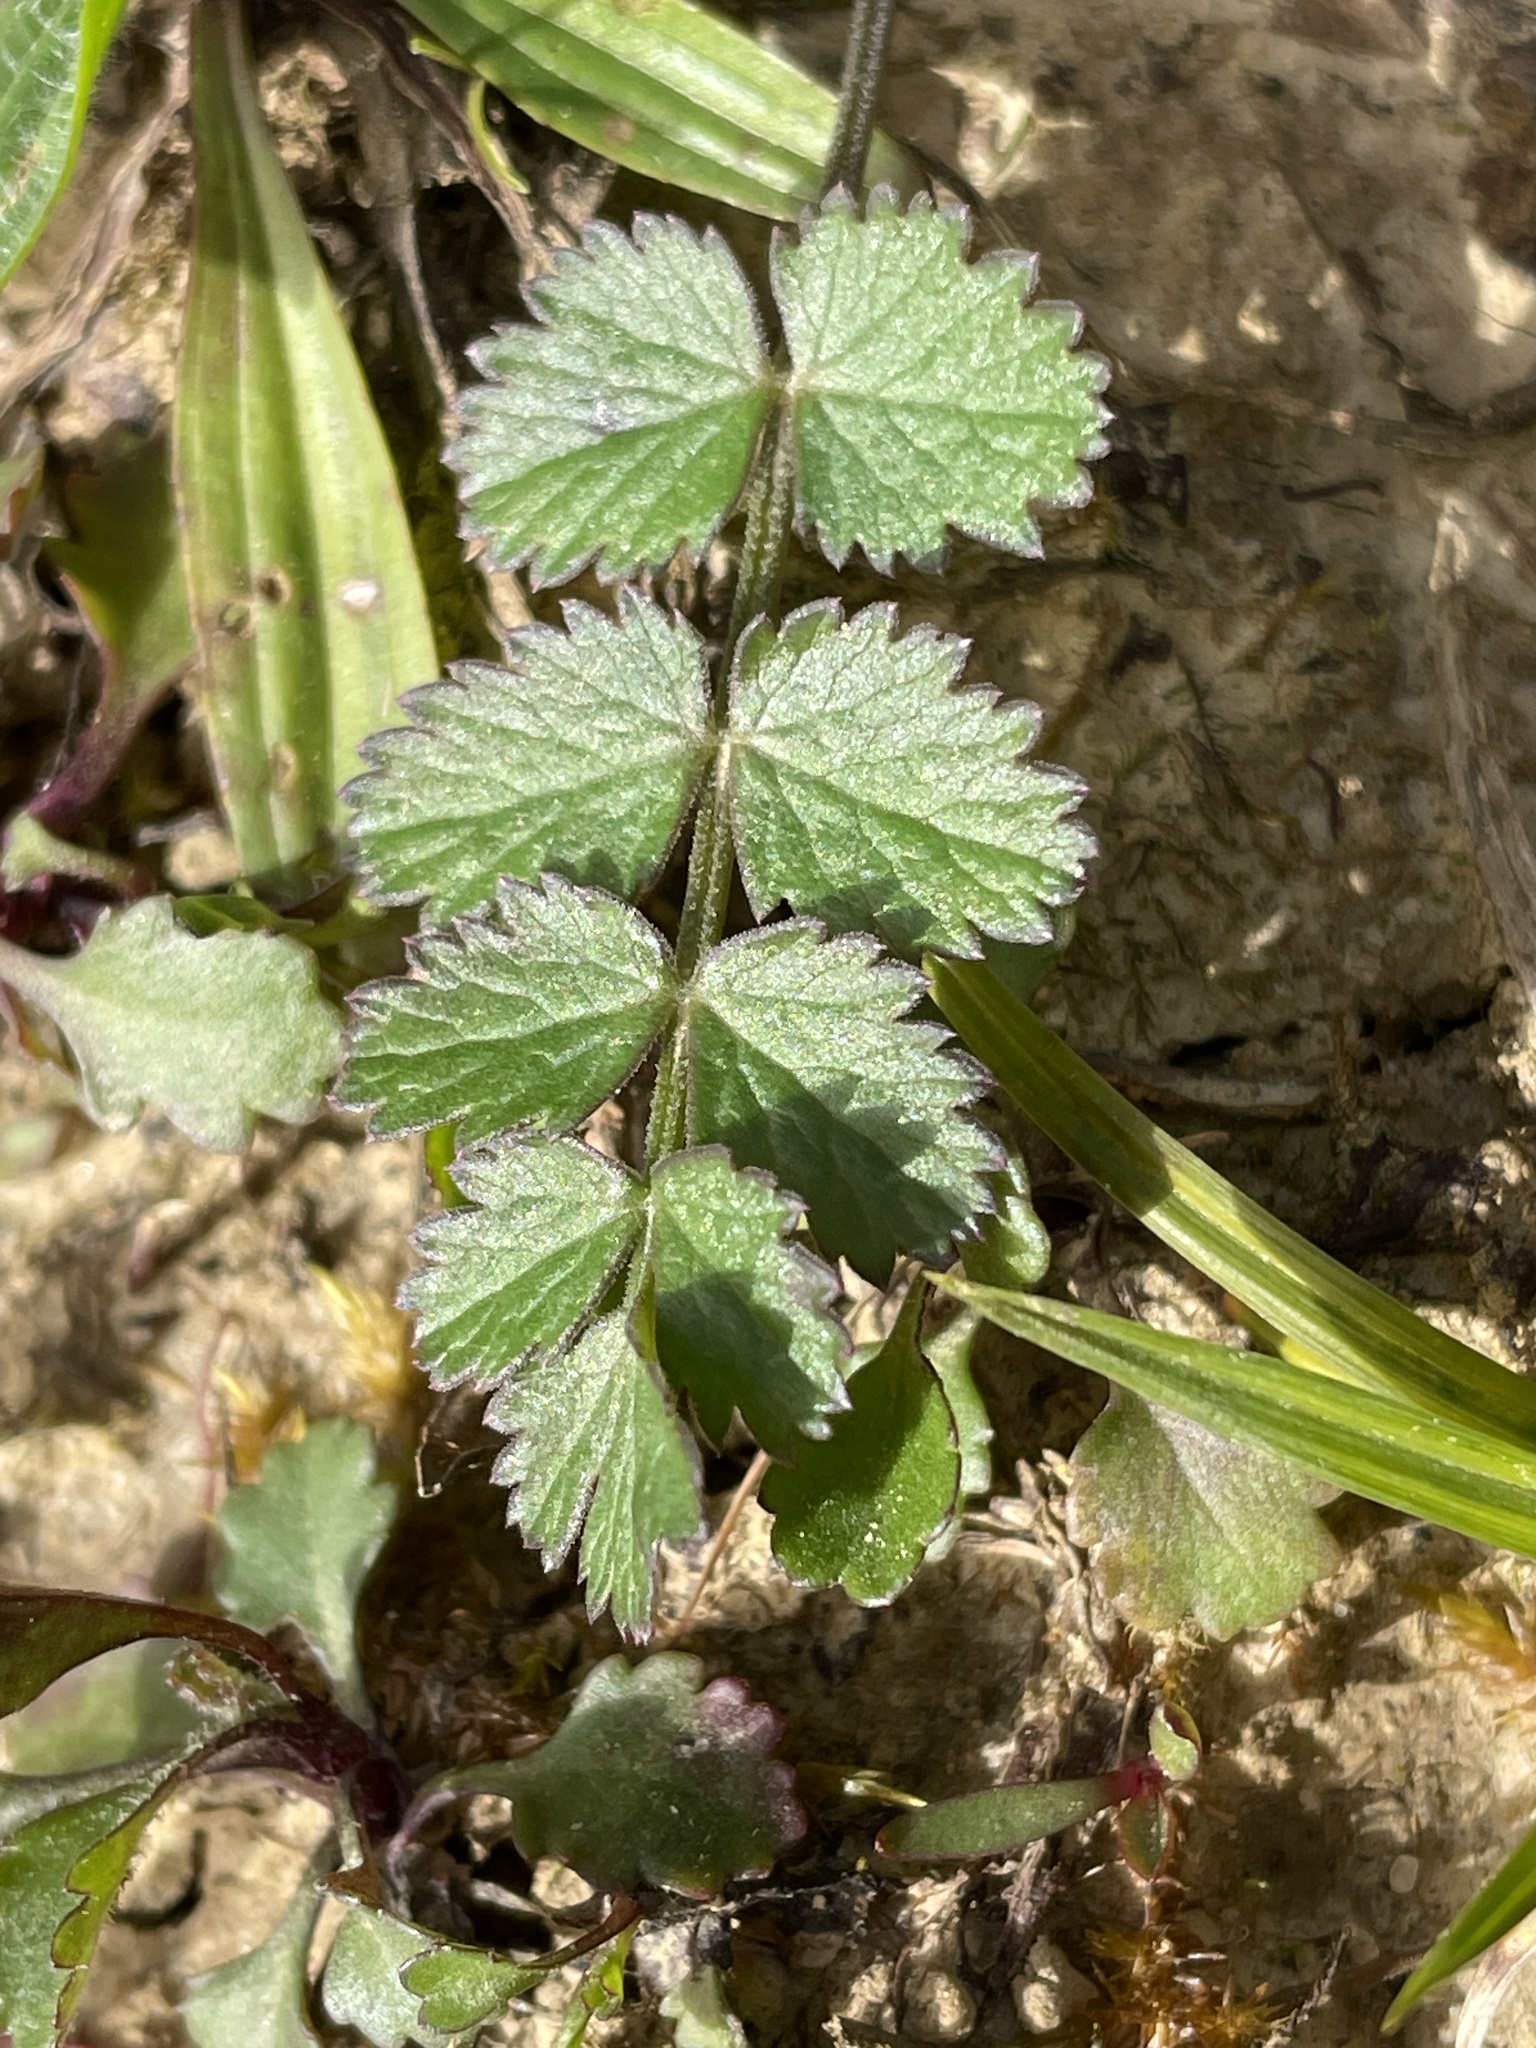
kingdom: Plantae
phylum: Tracheophyta
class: Magnoliopsida
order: Apiales
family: Apiaceae
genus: Pimpinella
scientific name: Pimpinella saxifraga
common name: Burnet-saxifrage
